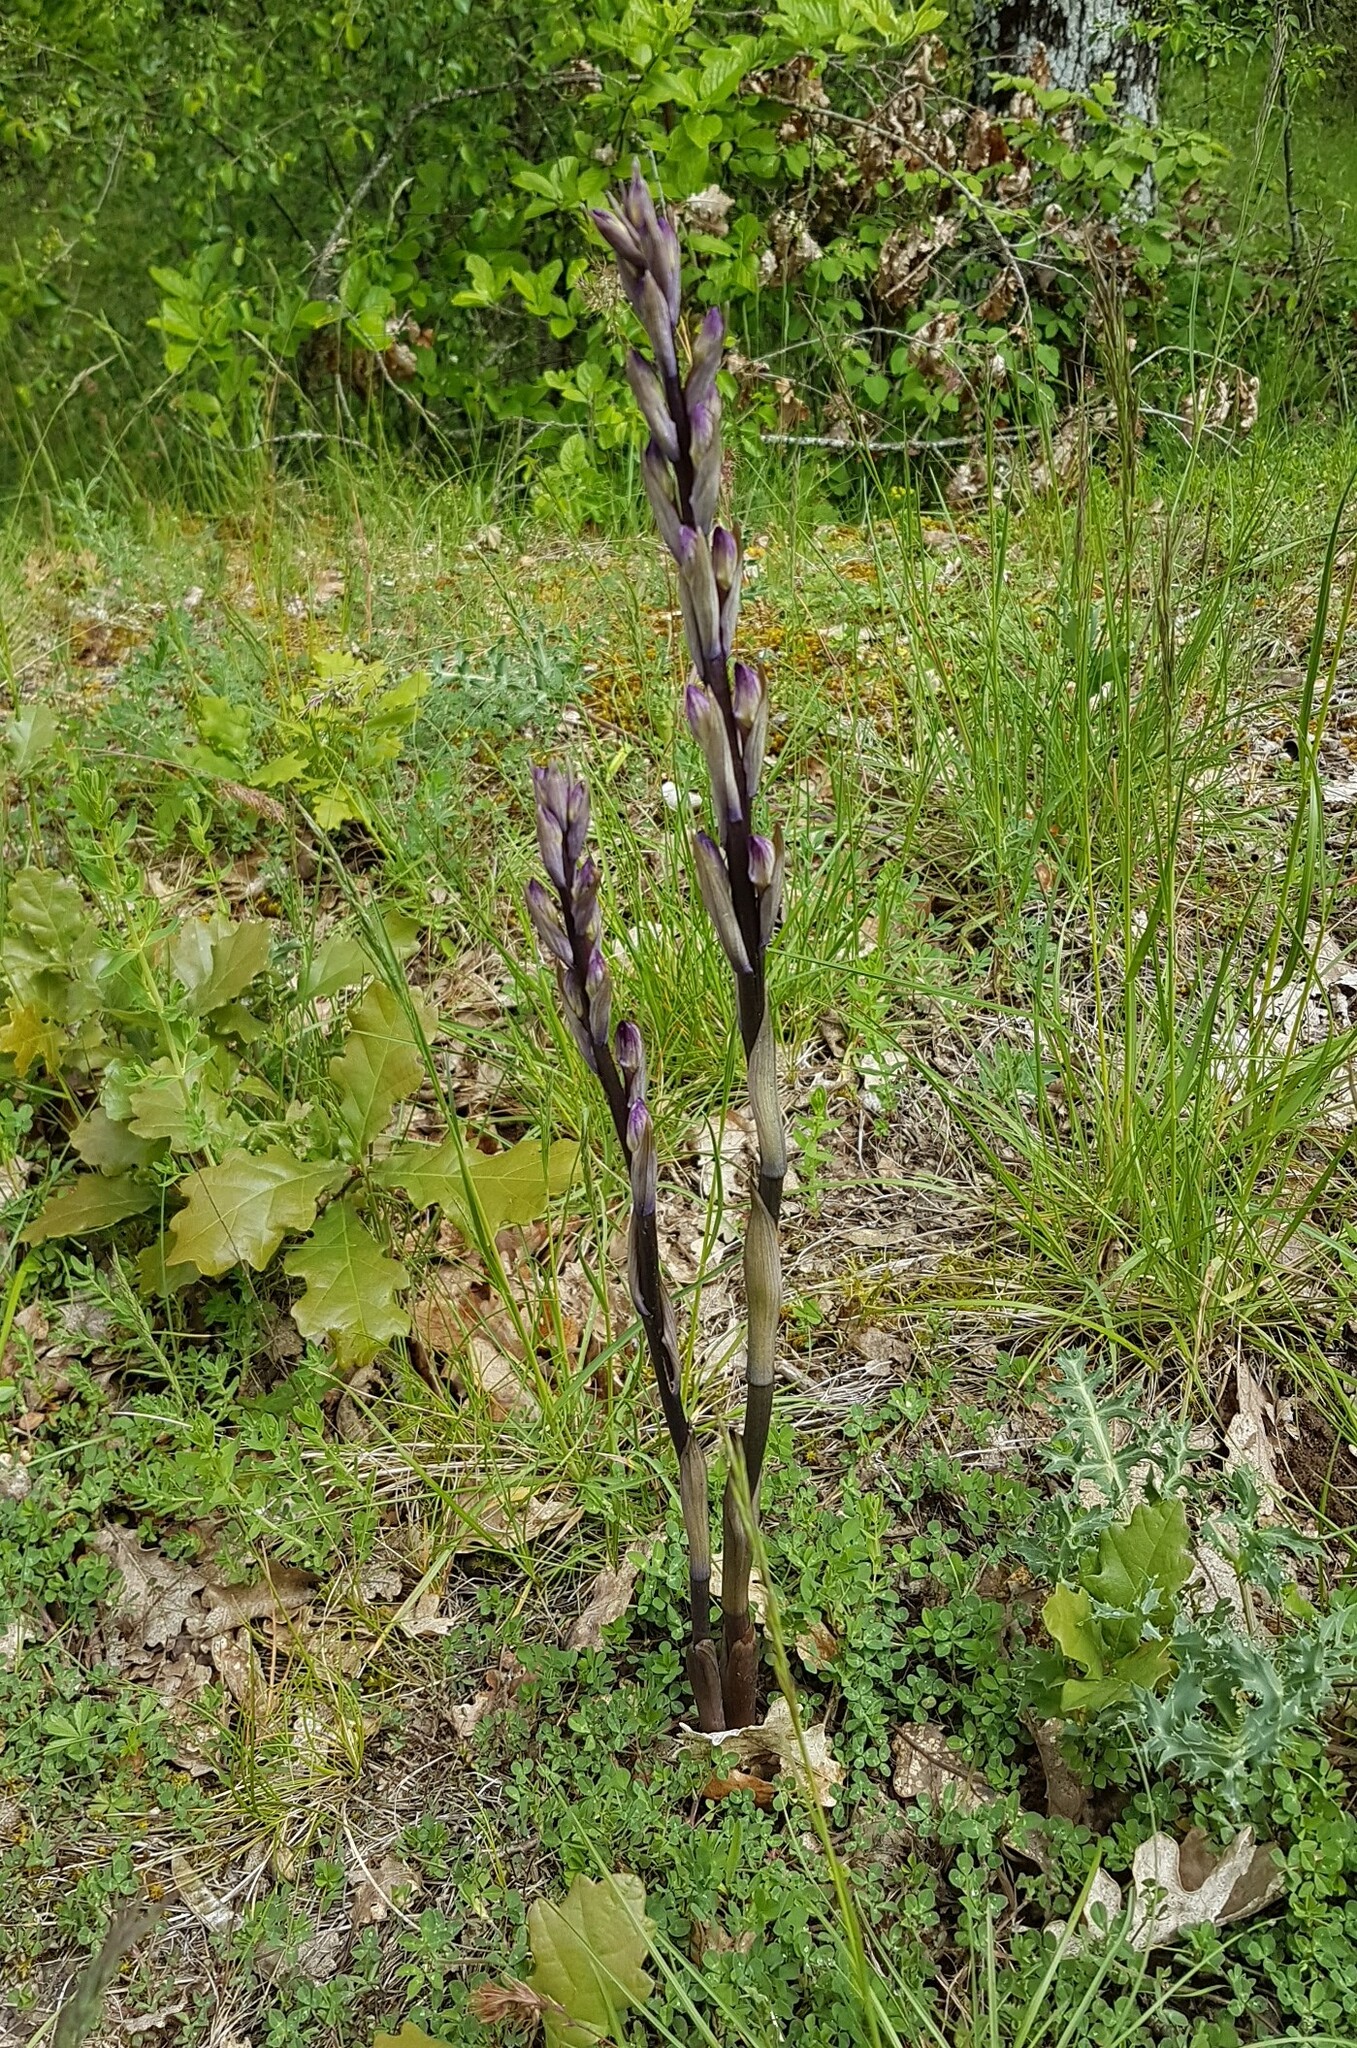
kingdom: Plantae
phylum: Tracheophyta
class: Liliopsida
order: Asparagales
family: Orchidaceae
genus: Limodorum
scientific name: Limodorum abortivum
